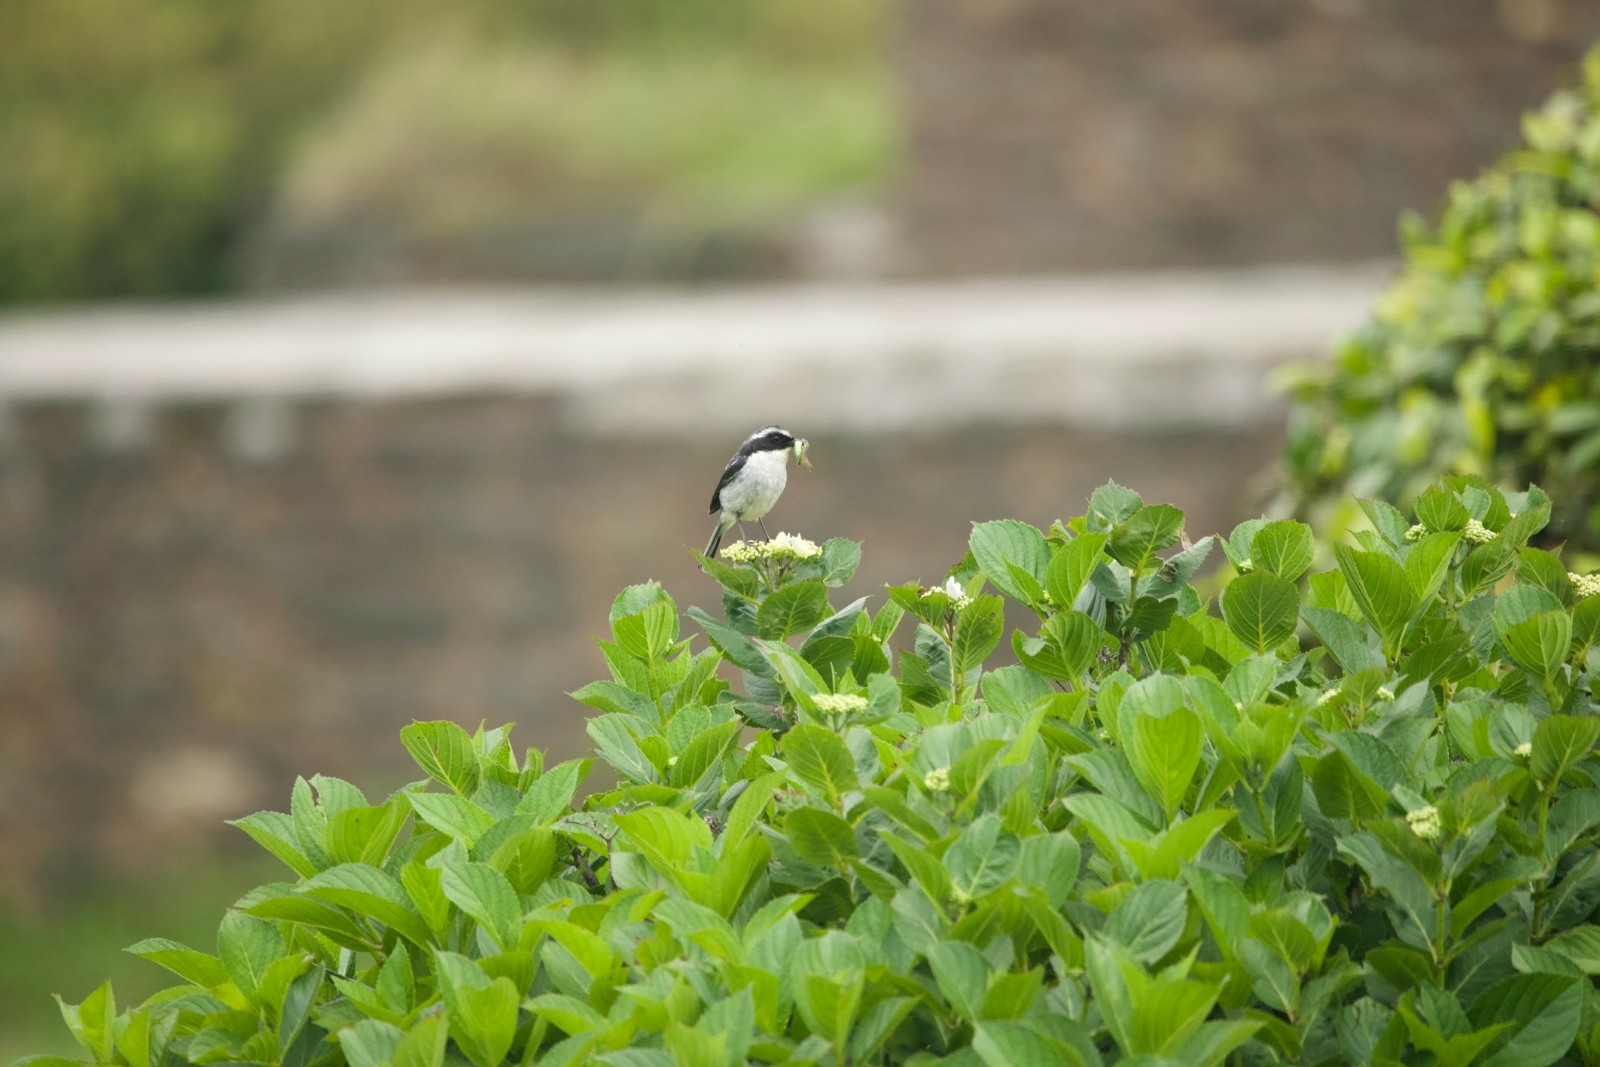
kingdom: Animalia
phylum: Chordata
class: Aves
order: Passeriformes
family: Muscicapidae
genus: Saxicola
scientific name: Saxicola ferreus
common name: Grey bush chat
